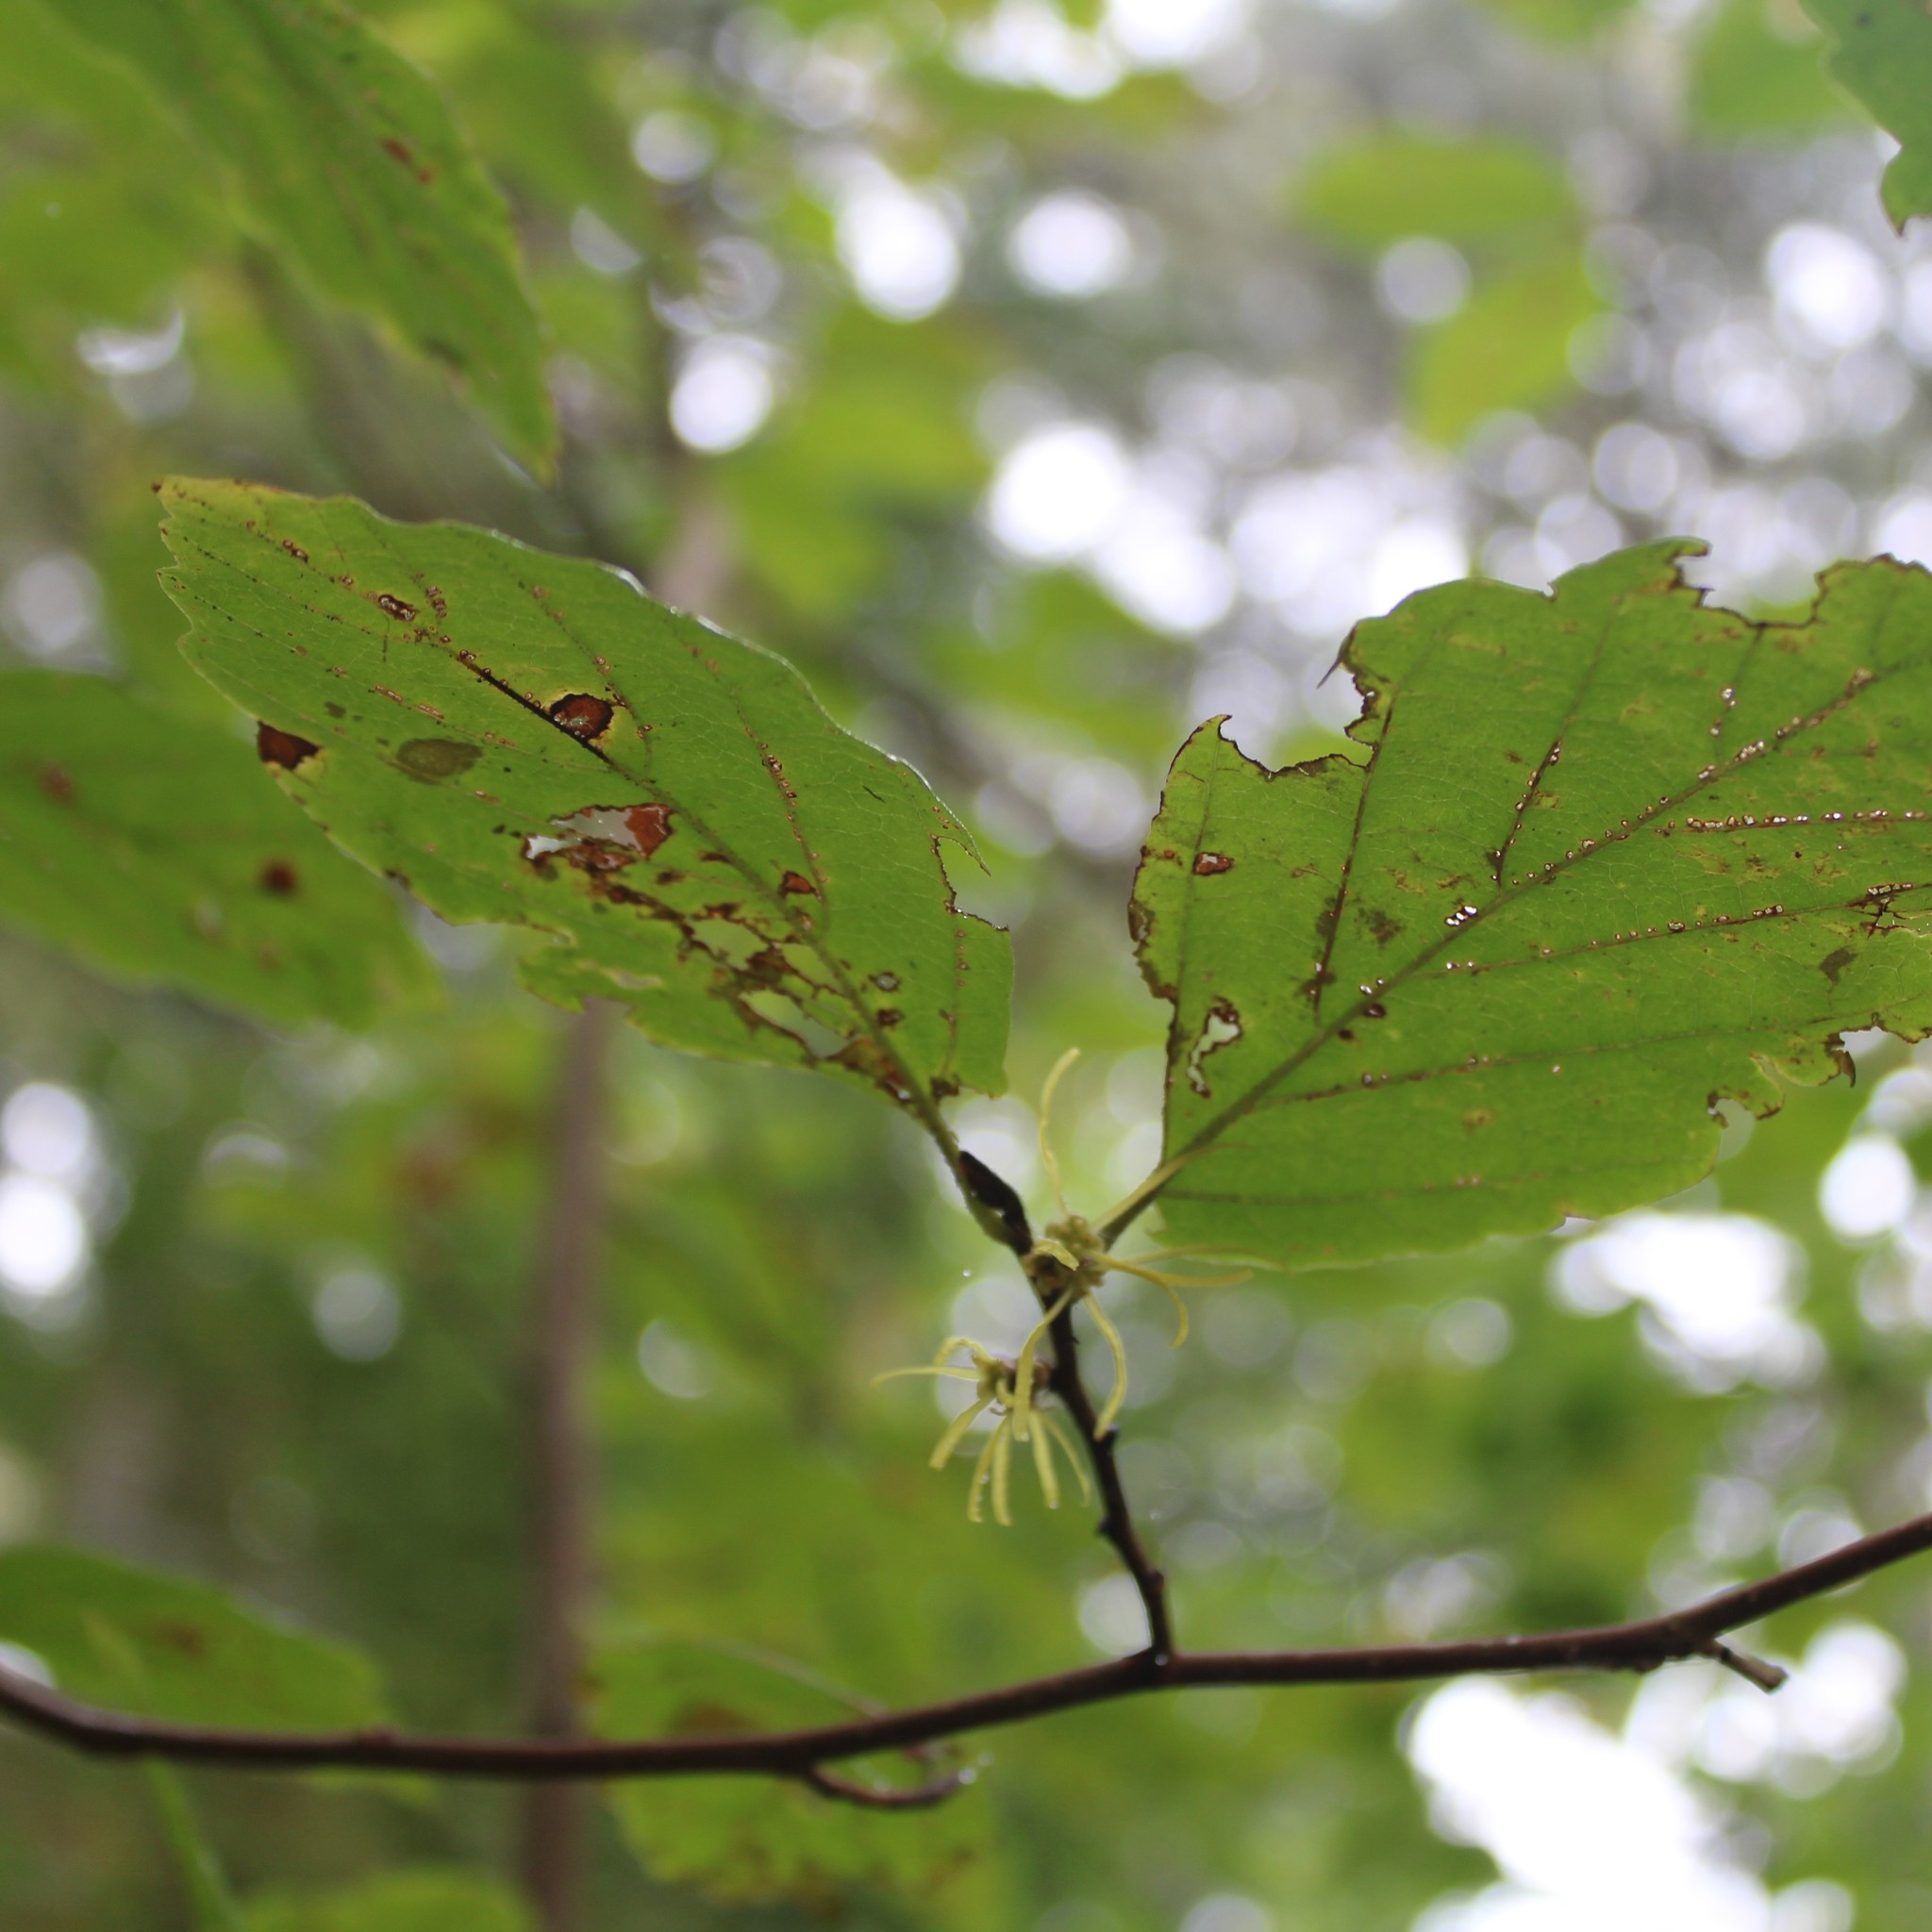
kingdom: Plantae
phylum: Tracheophyta
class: Magnoliopsida
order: Saxifragales
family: Hamamelidaceae
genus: Hamamelis
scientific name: Hamamelis virginiana
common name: Witch-hazel
